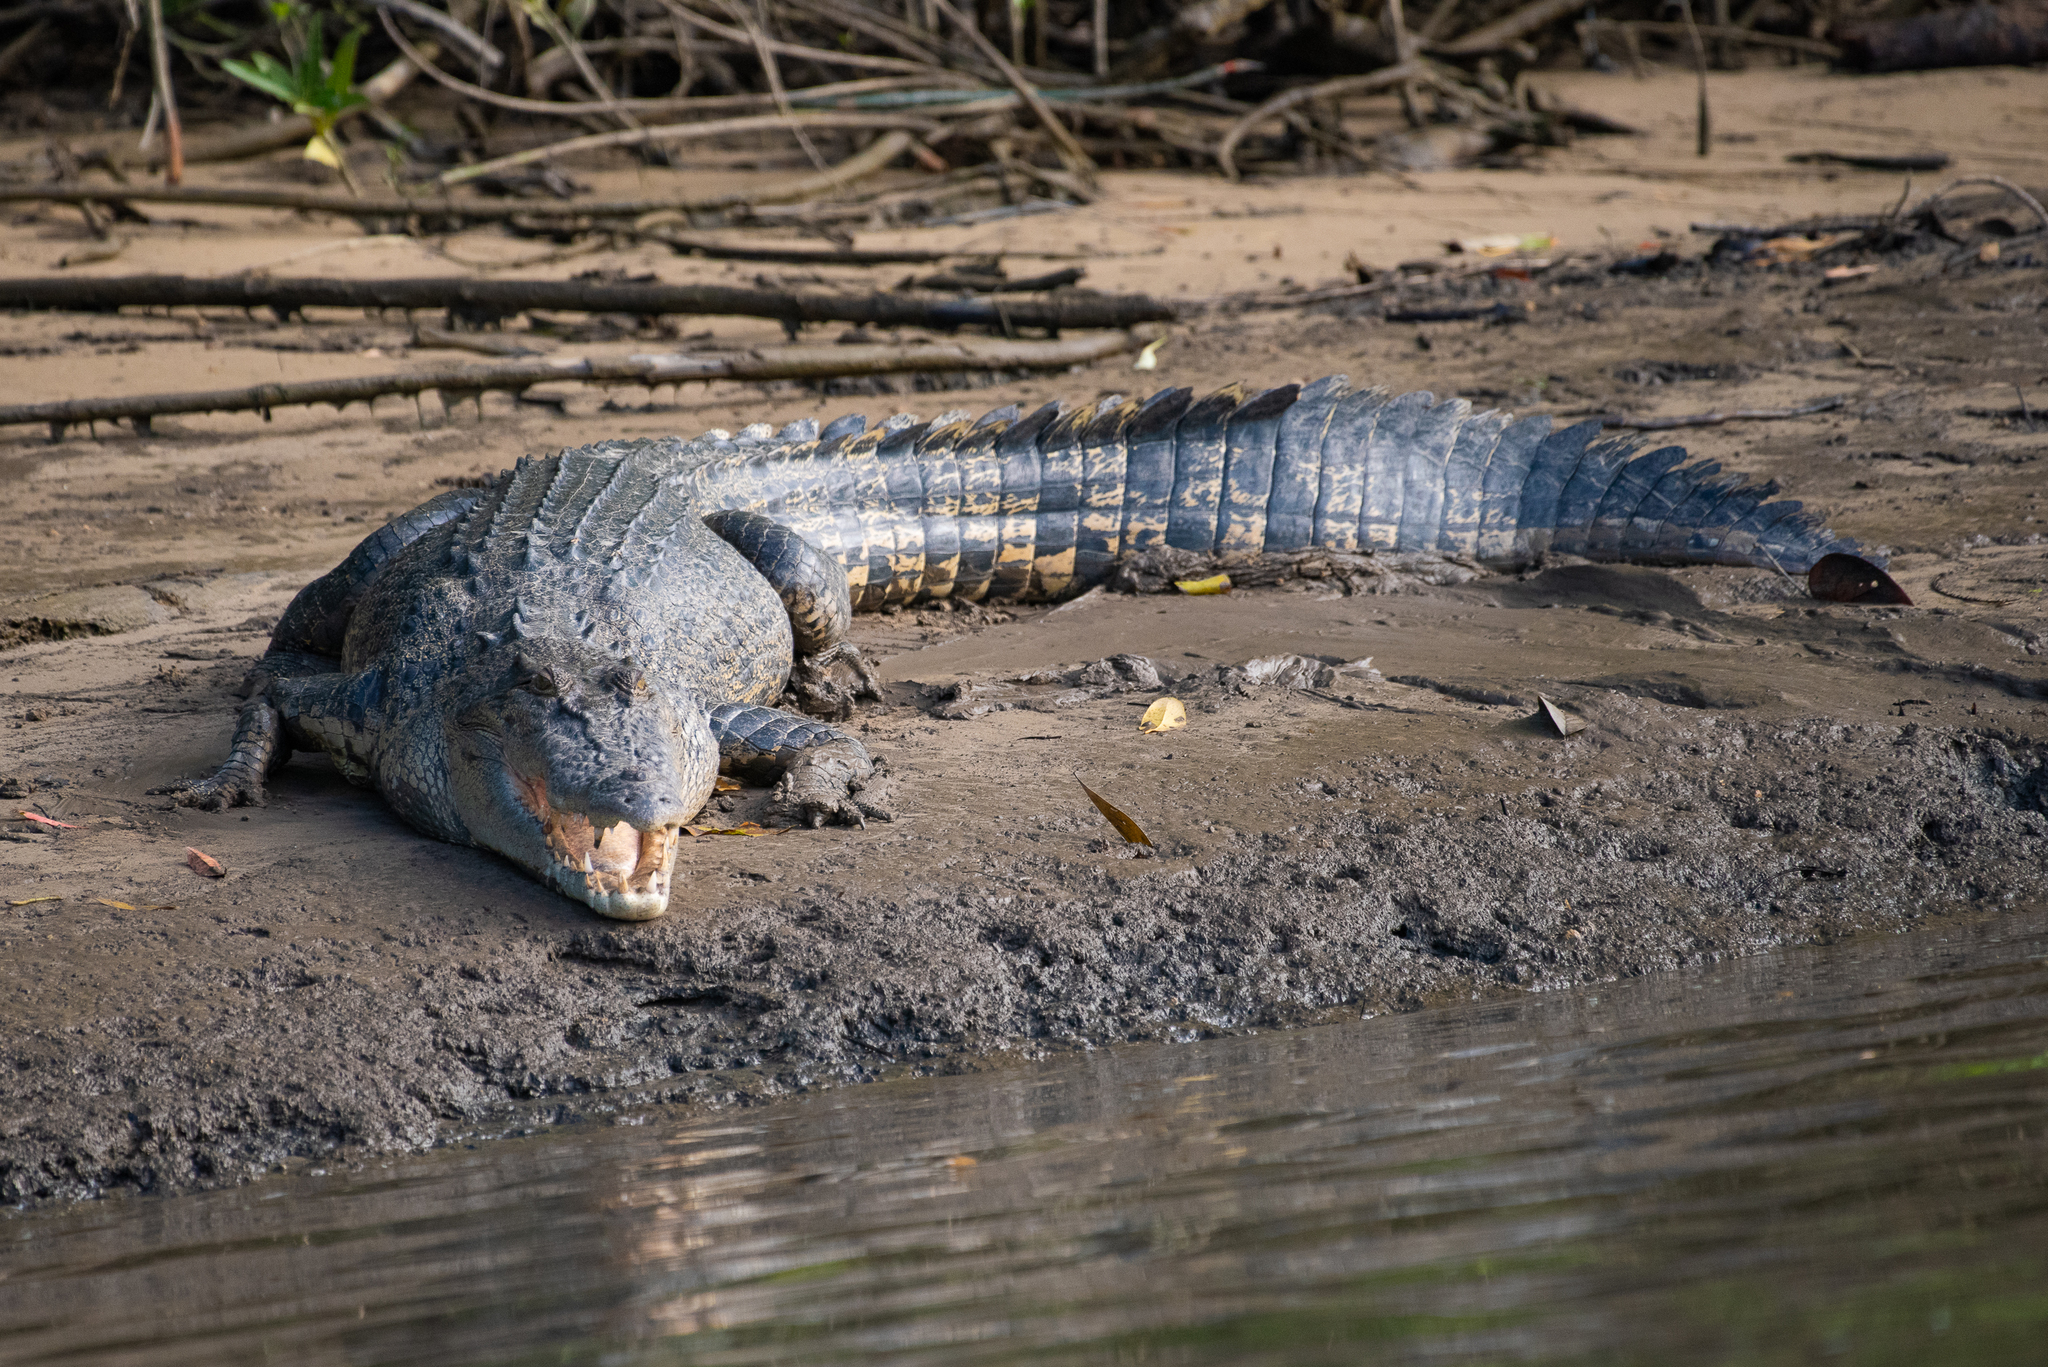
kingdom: Animalia
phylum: Chordata
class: Crocodylia
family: Crocodylidae
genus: Crocodylus
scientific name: Crocodylus porosus
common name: Saltwater crocodile
